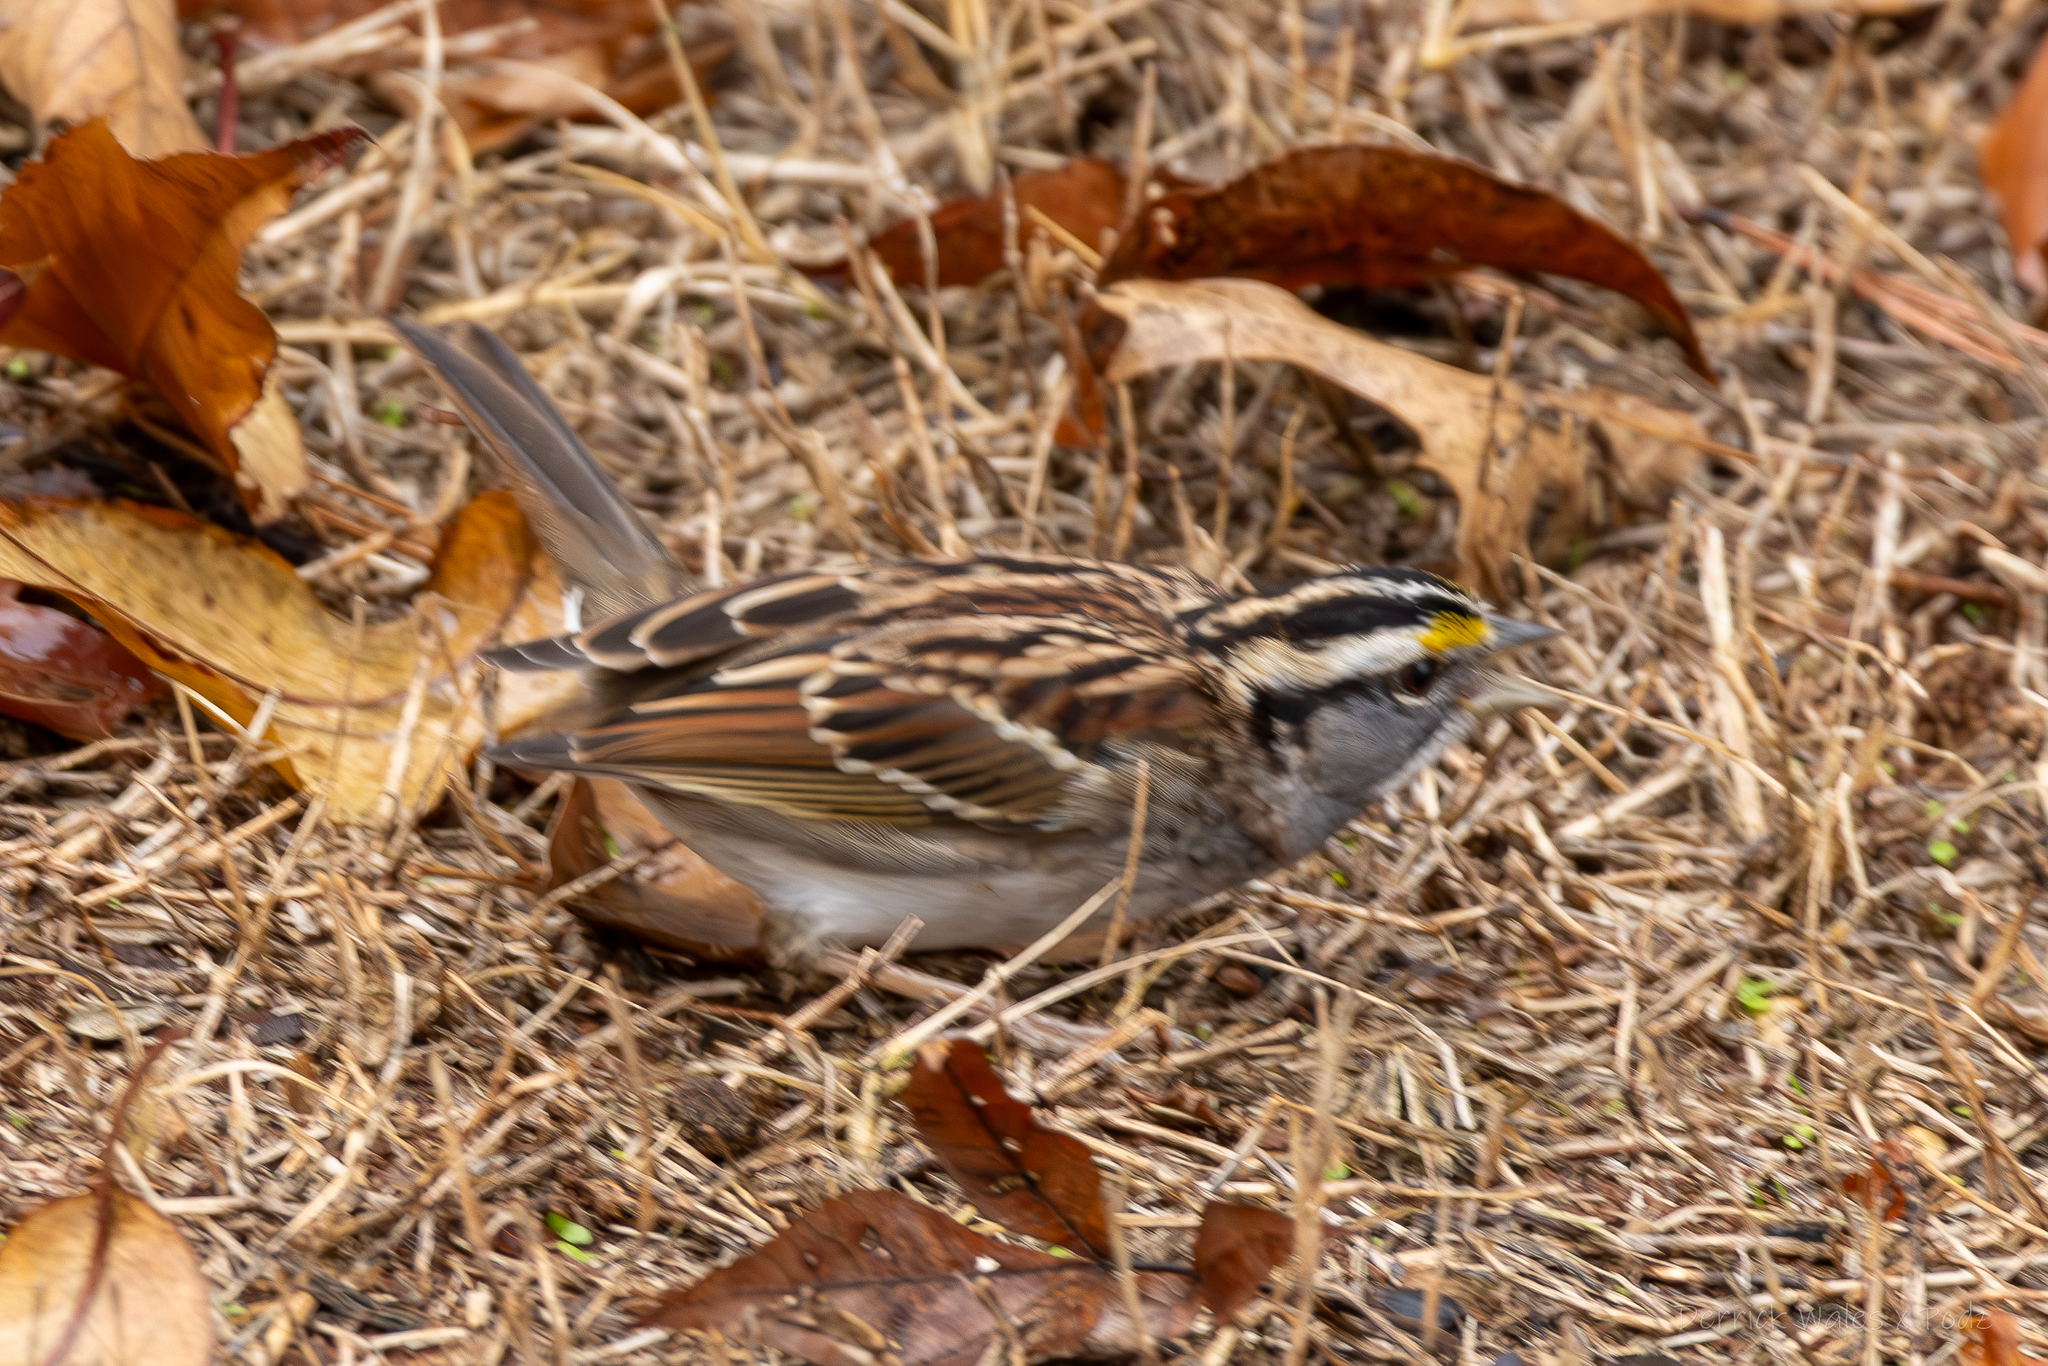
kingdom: Animalia
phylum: Chordata
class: Aves
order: Passeriformes
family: Passerellidae
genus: Zonotrichia
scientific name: Zonotrichia albicollis
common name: White-throated sparrow
